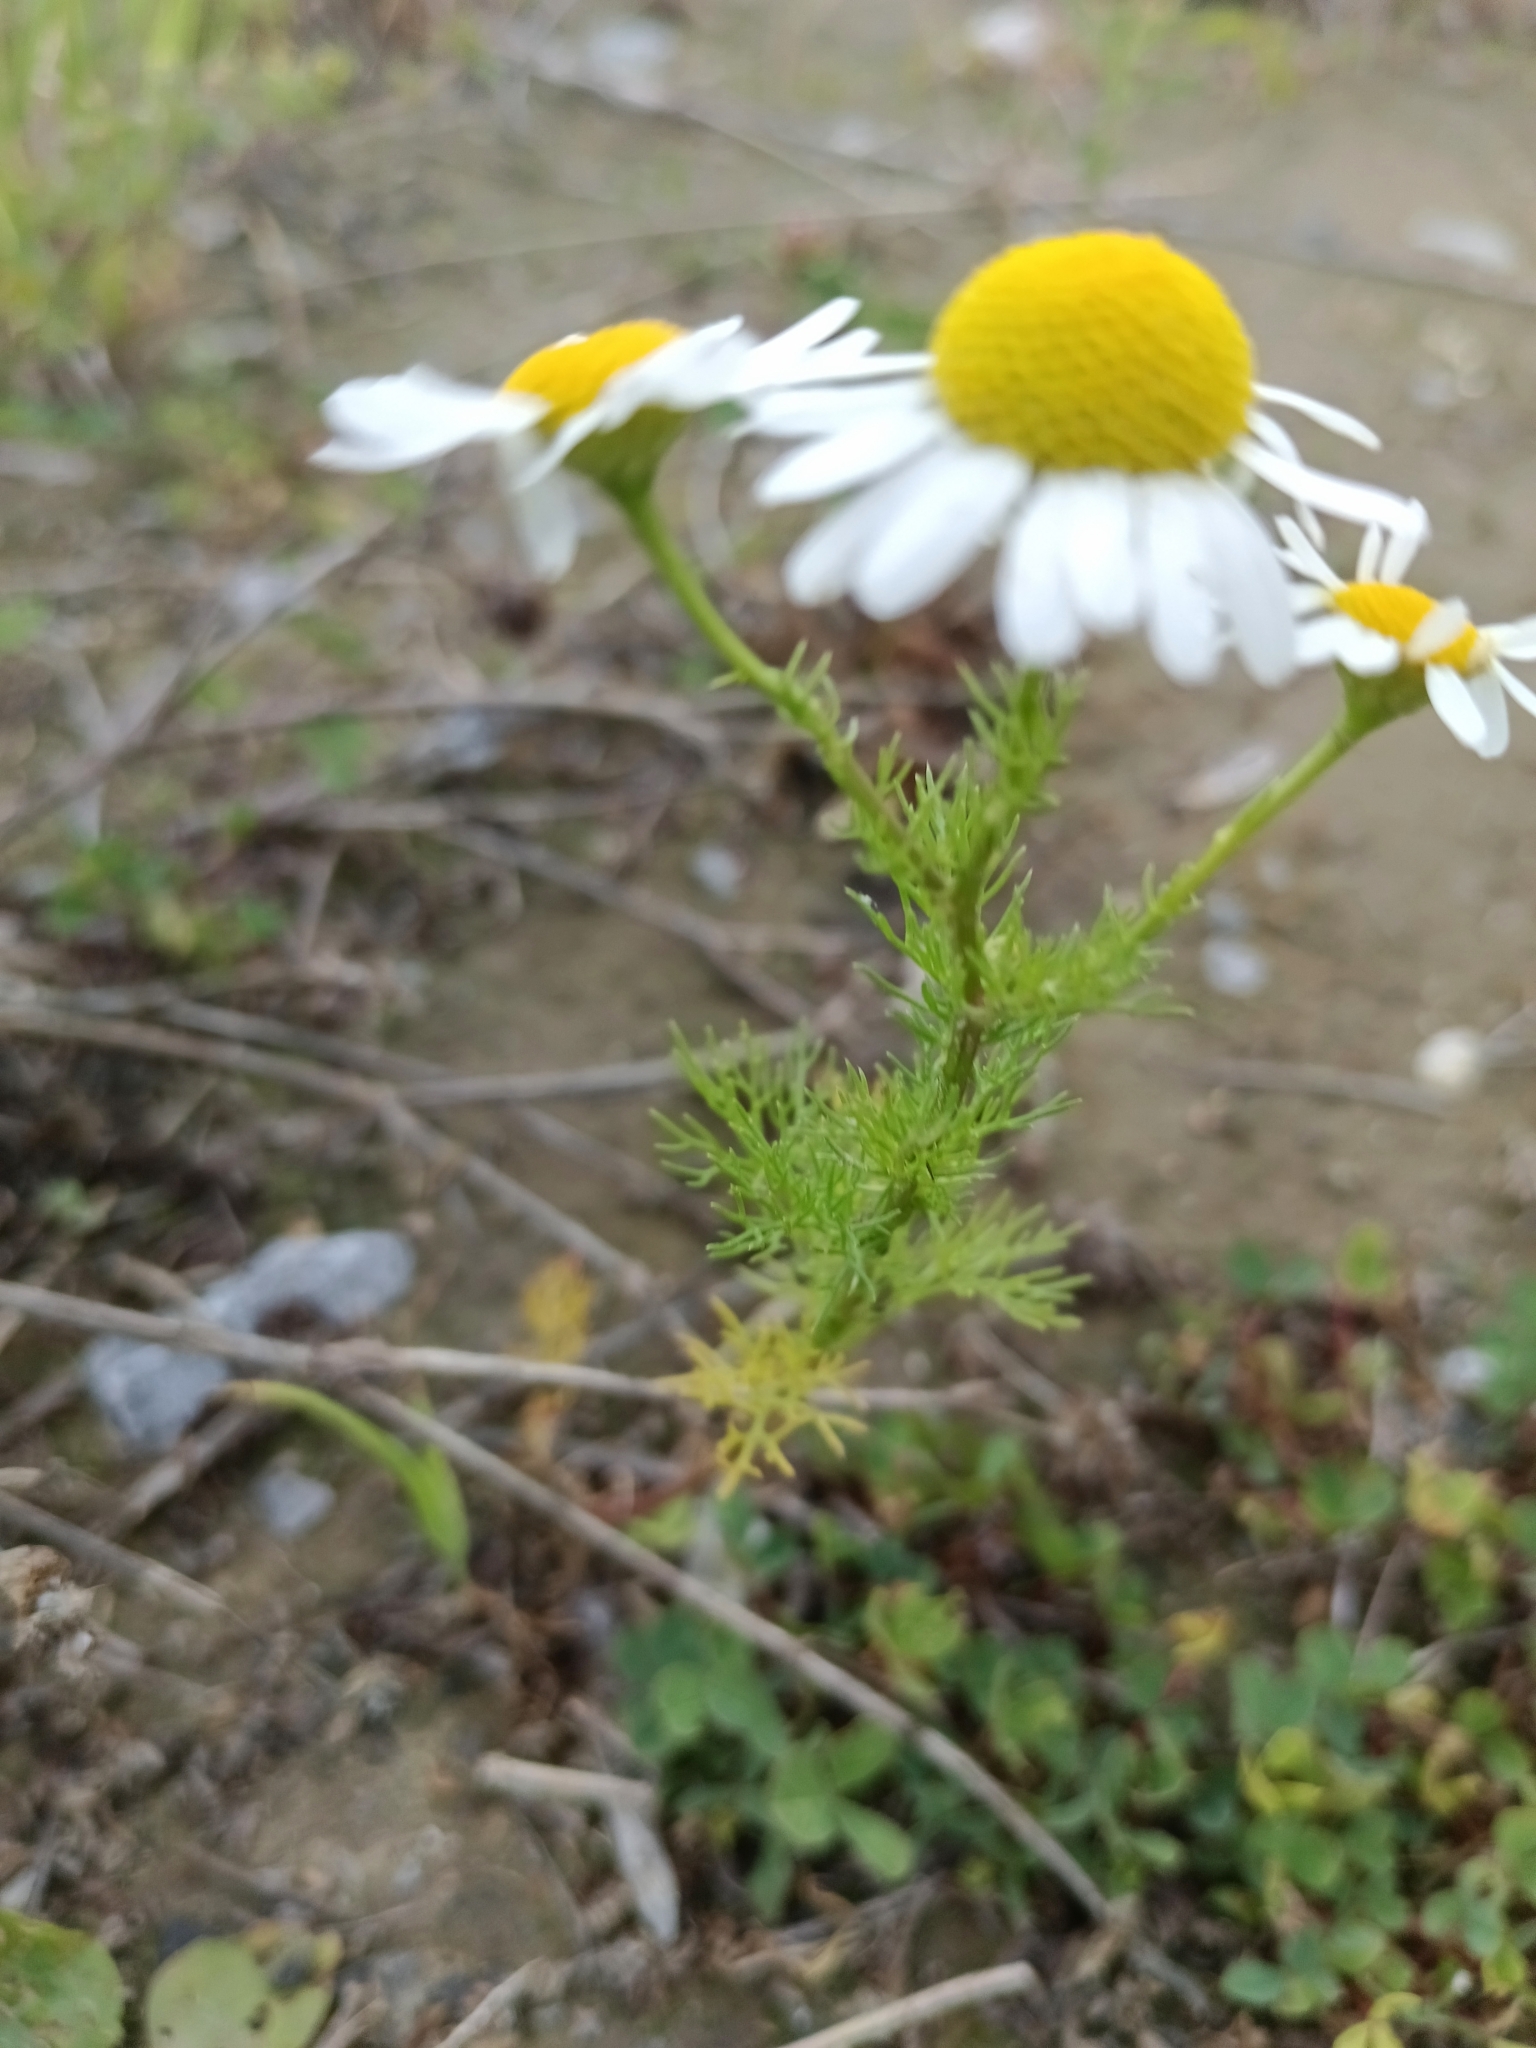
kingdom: Plantae
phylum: Tracheophyta
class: Magnoliopsida
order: Asterales
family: Asteraceae
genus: Tripleurospermum
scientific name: Tripleurospermum inodorum
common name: Scentless mayweed
